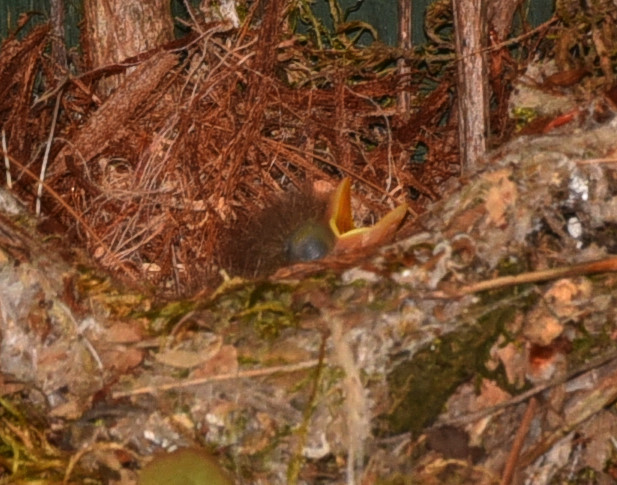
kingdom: Animalia
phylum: Chordata
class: Aves
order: Passeriformes
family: Tyrannidae
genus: Empidonax
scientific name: Empidonax difficilis
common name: Pacific-slope flycatcher
